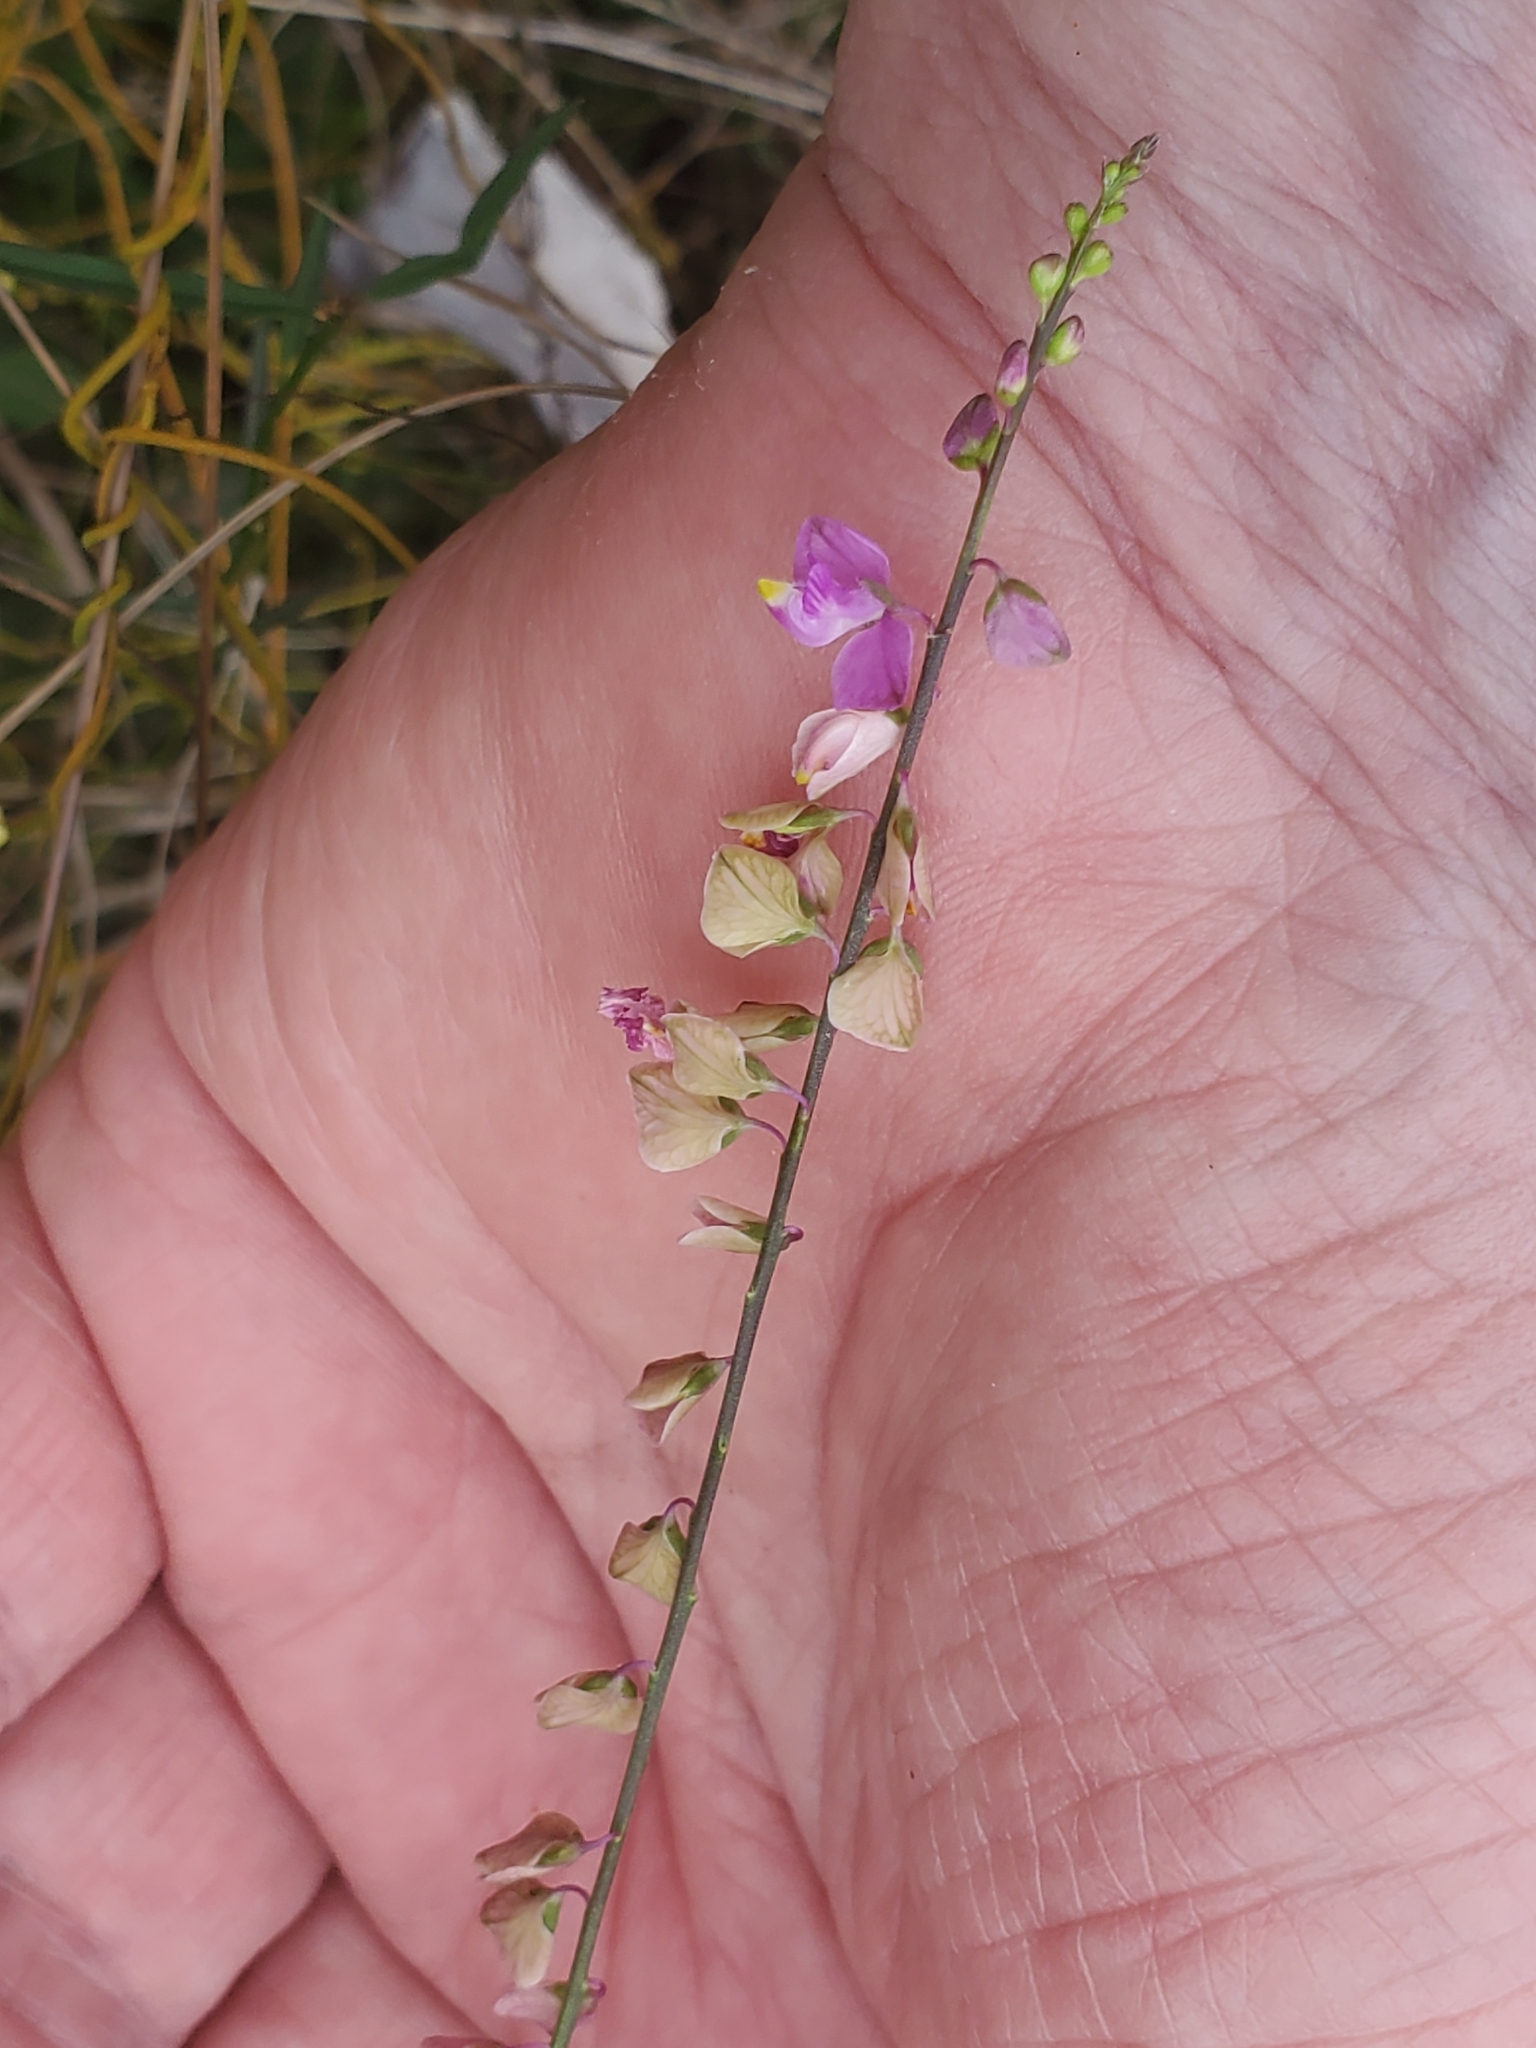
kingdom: Plantae
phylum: Tracheophyta
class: Magnoliopsida
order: Fabales
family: Polygalaceae
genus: Asemeia
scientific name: Asemeia grandiflora
